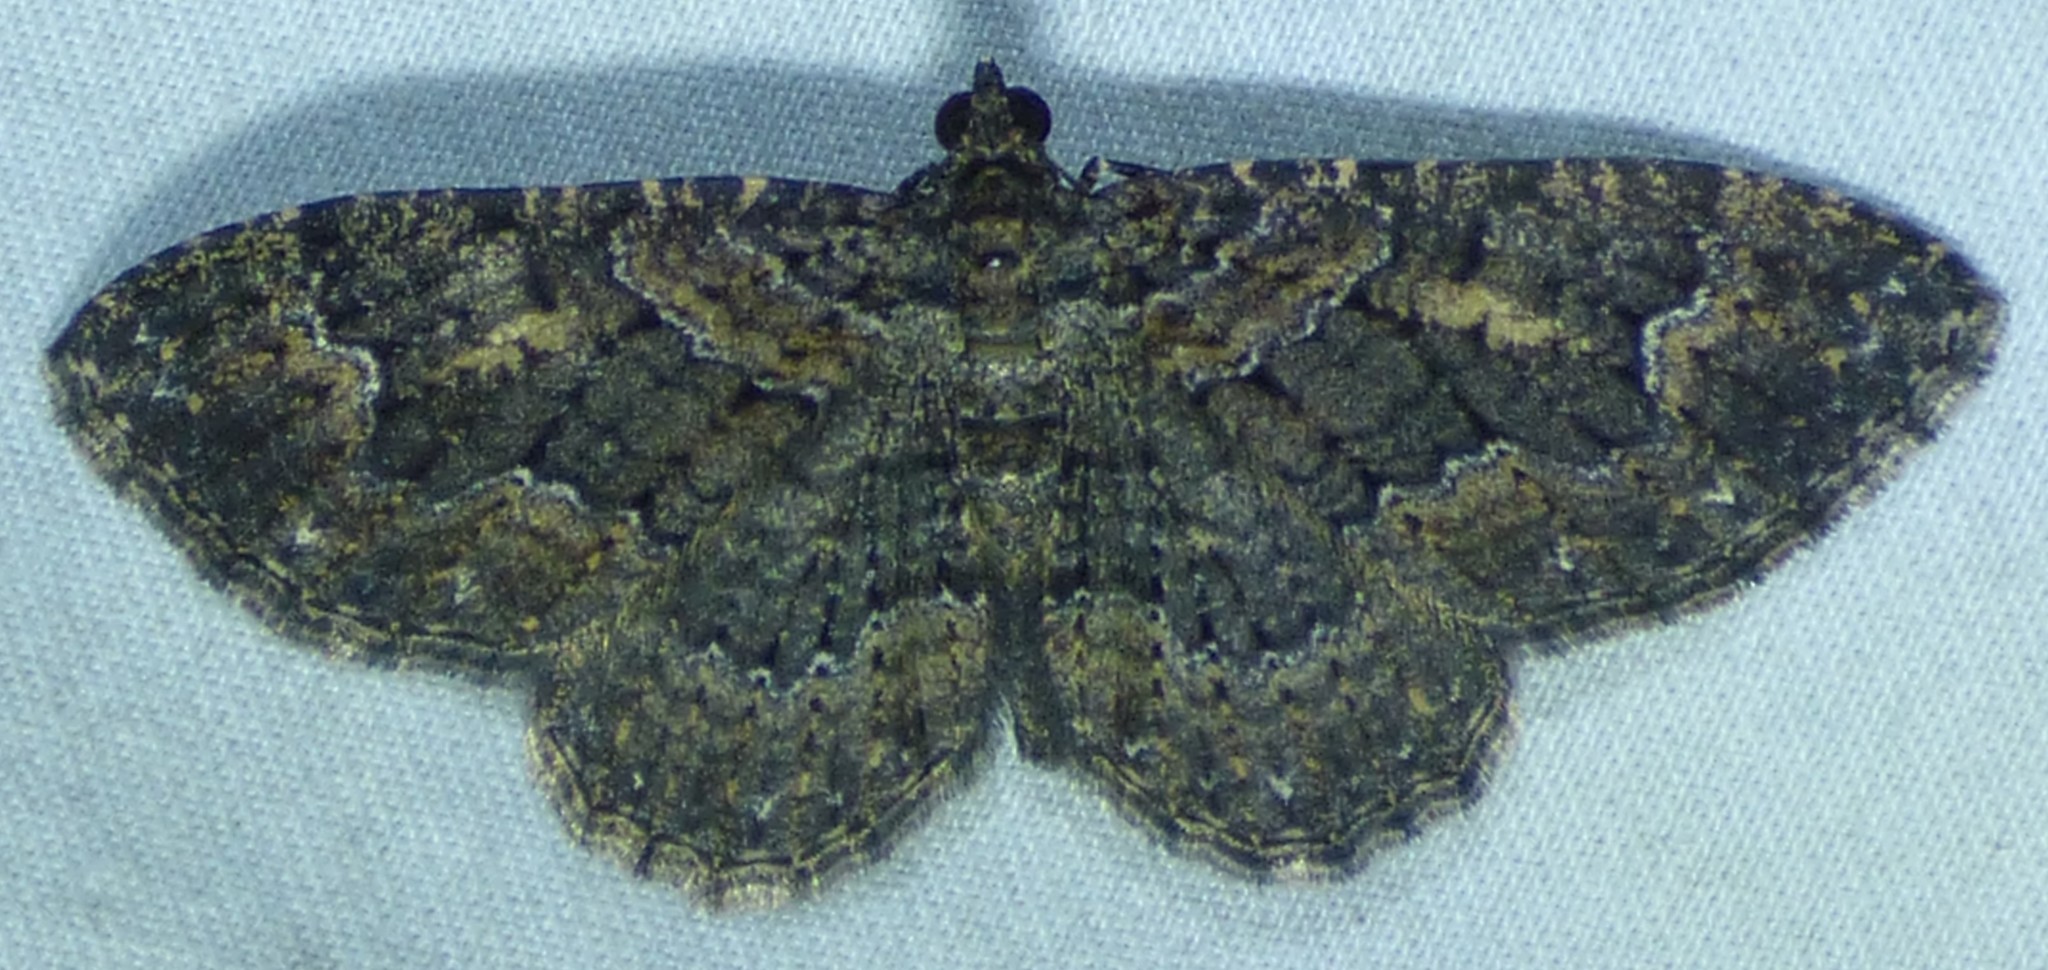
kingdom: Animalia
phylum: Arthropoda
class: Insecta
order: Lepidoptera
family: Geometridae
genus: Disclisioprocta
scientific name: Disclisioprocta stellata
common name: Somber carpet
